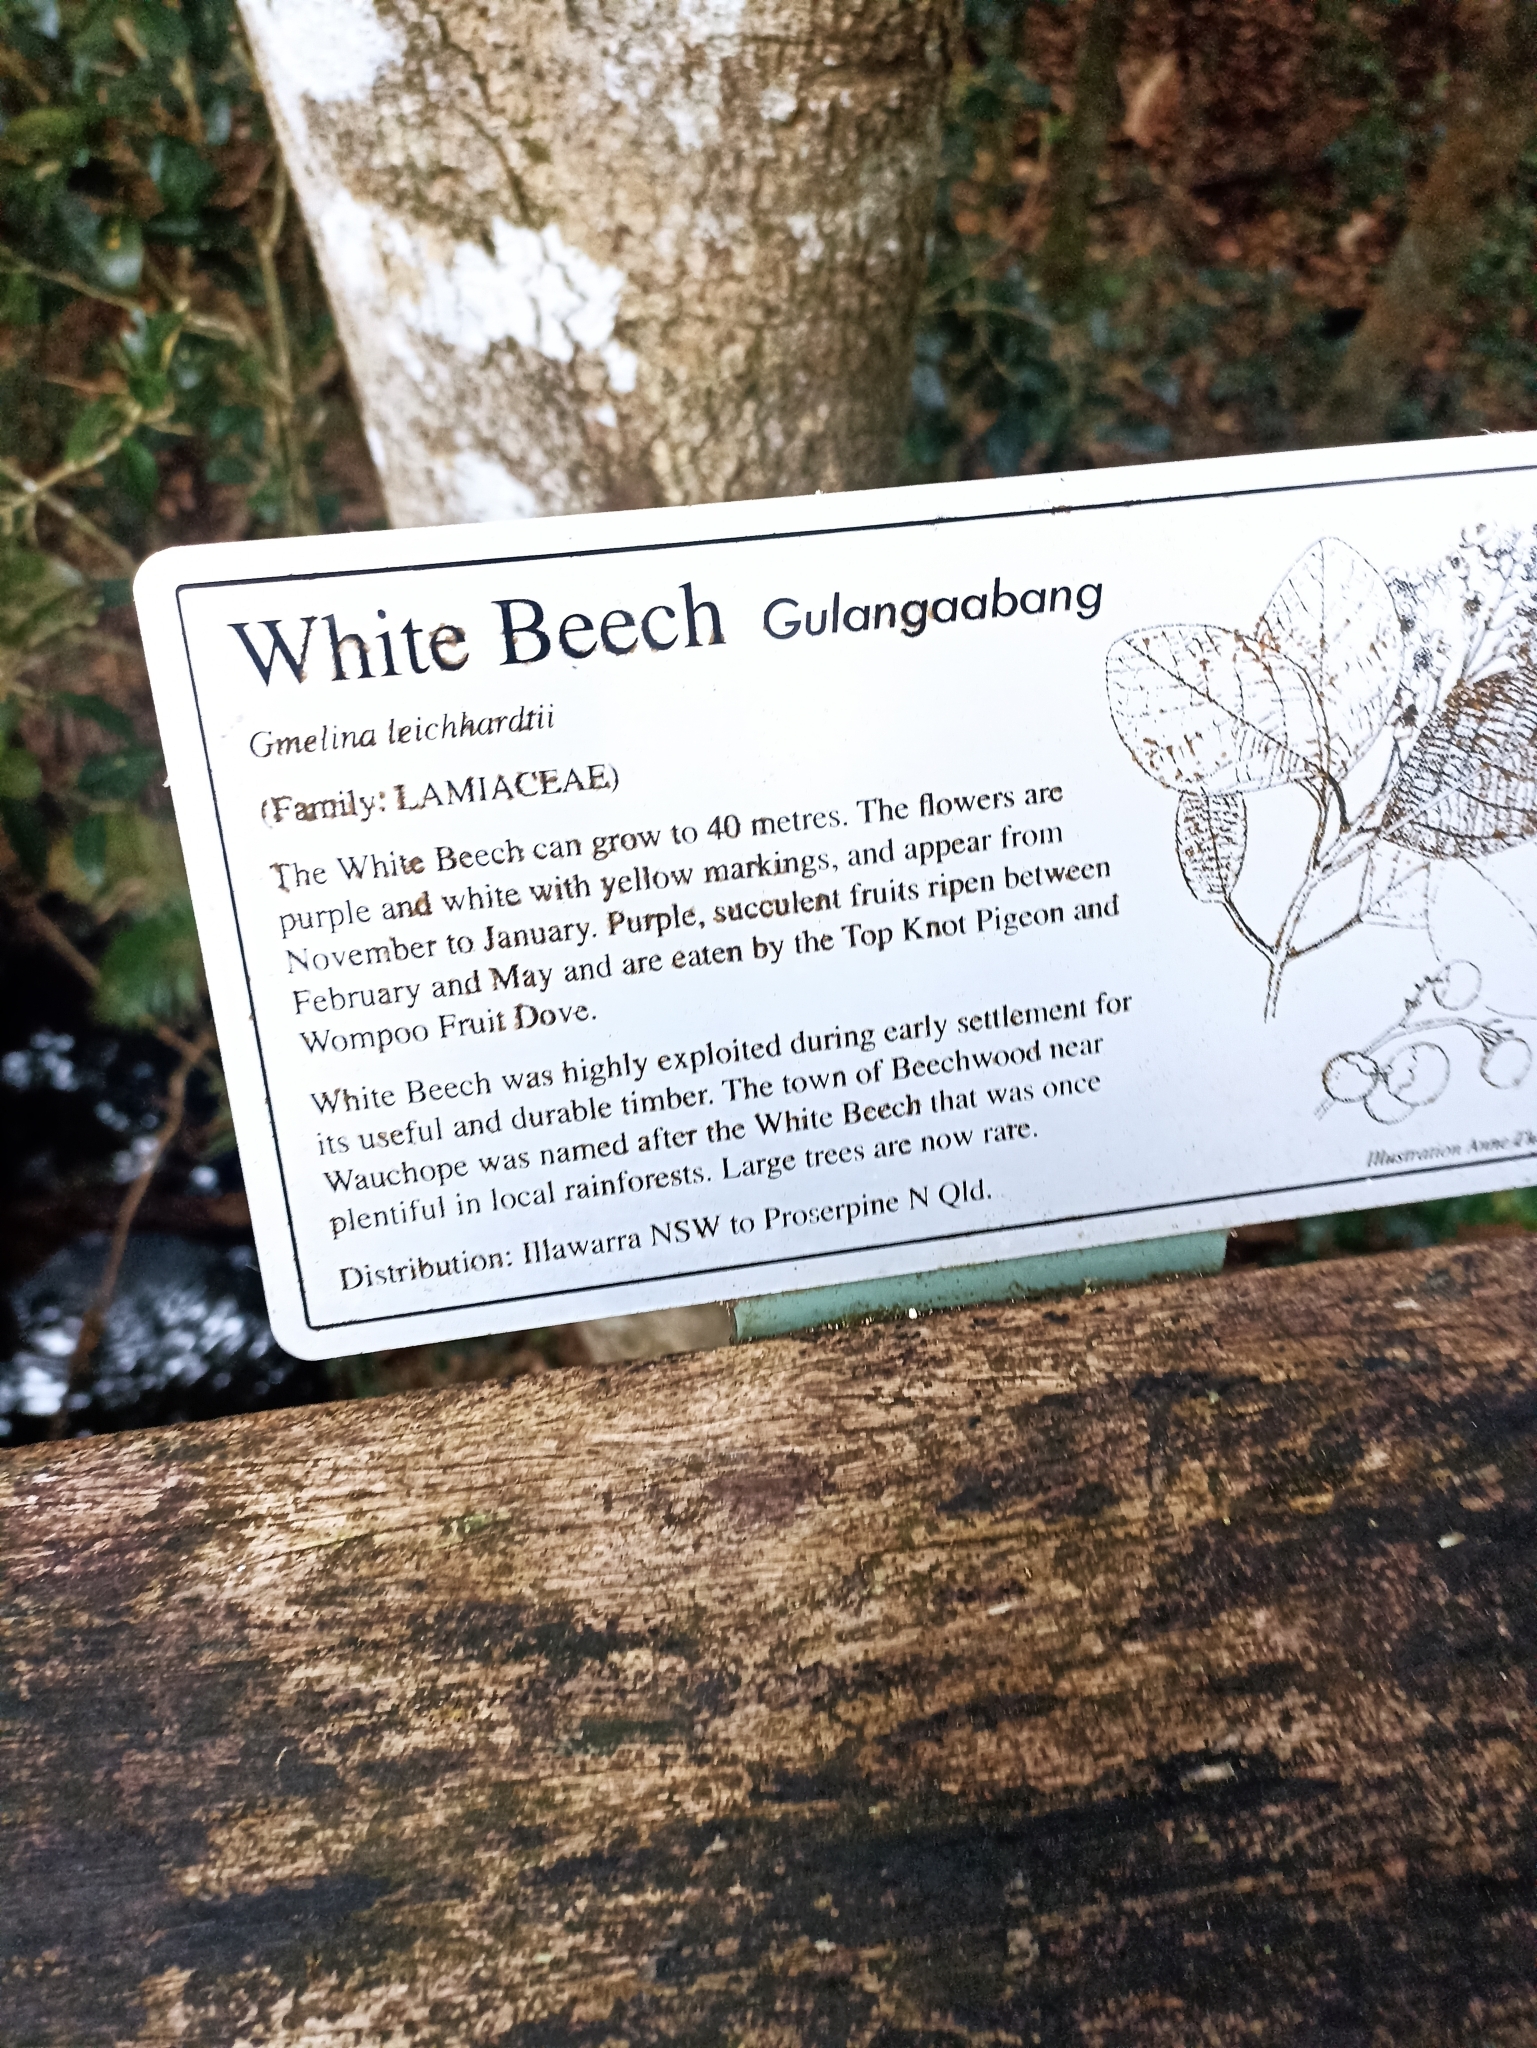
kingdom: Plantae
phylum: Tracheophyta
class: Magnoliopsida
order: Lamiales
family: Lamiaceae
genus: Gmelina
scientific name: Gmelina leichhardtii
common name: Queensland-beech
